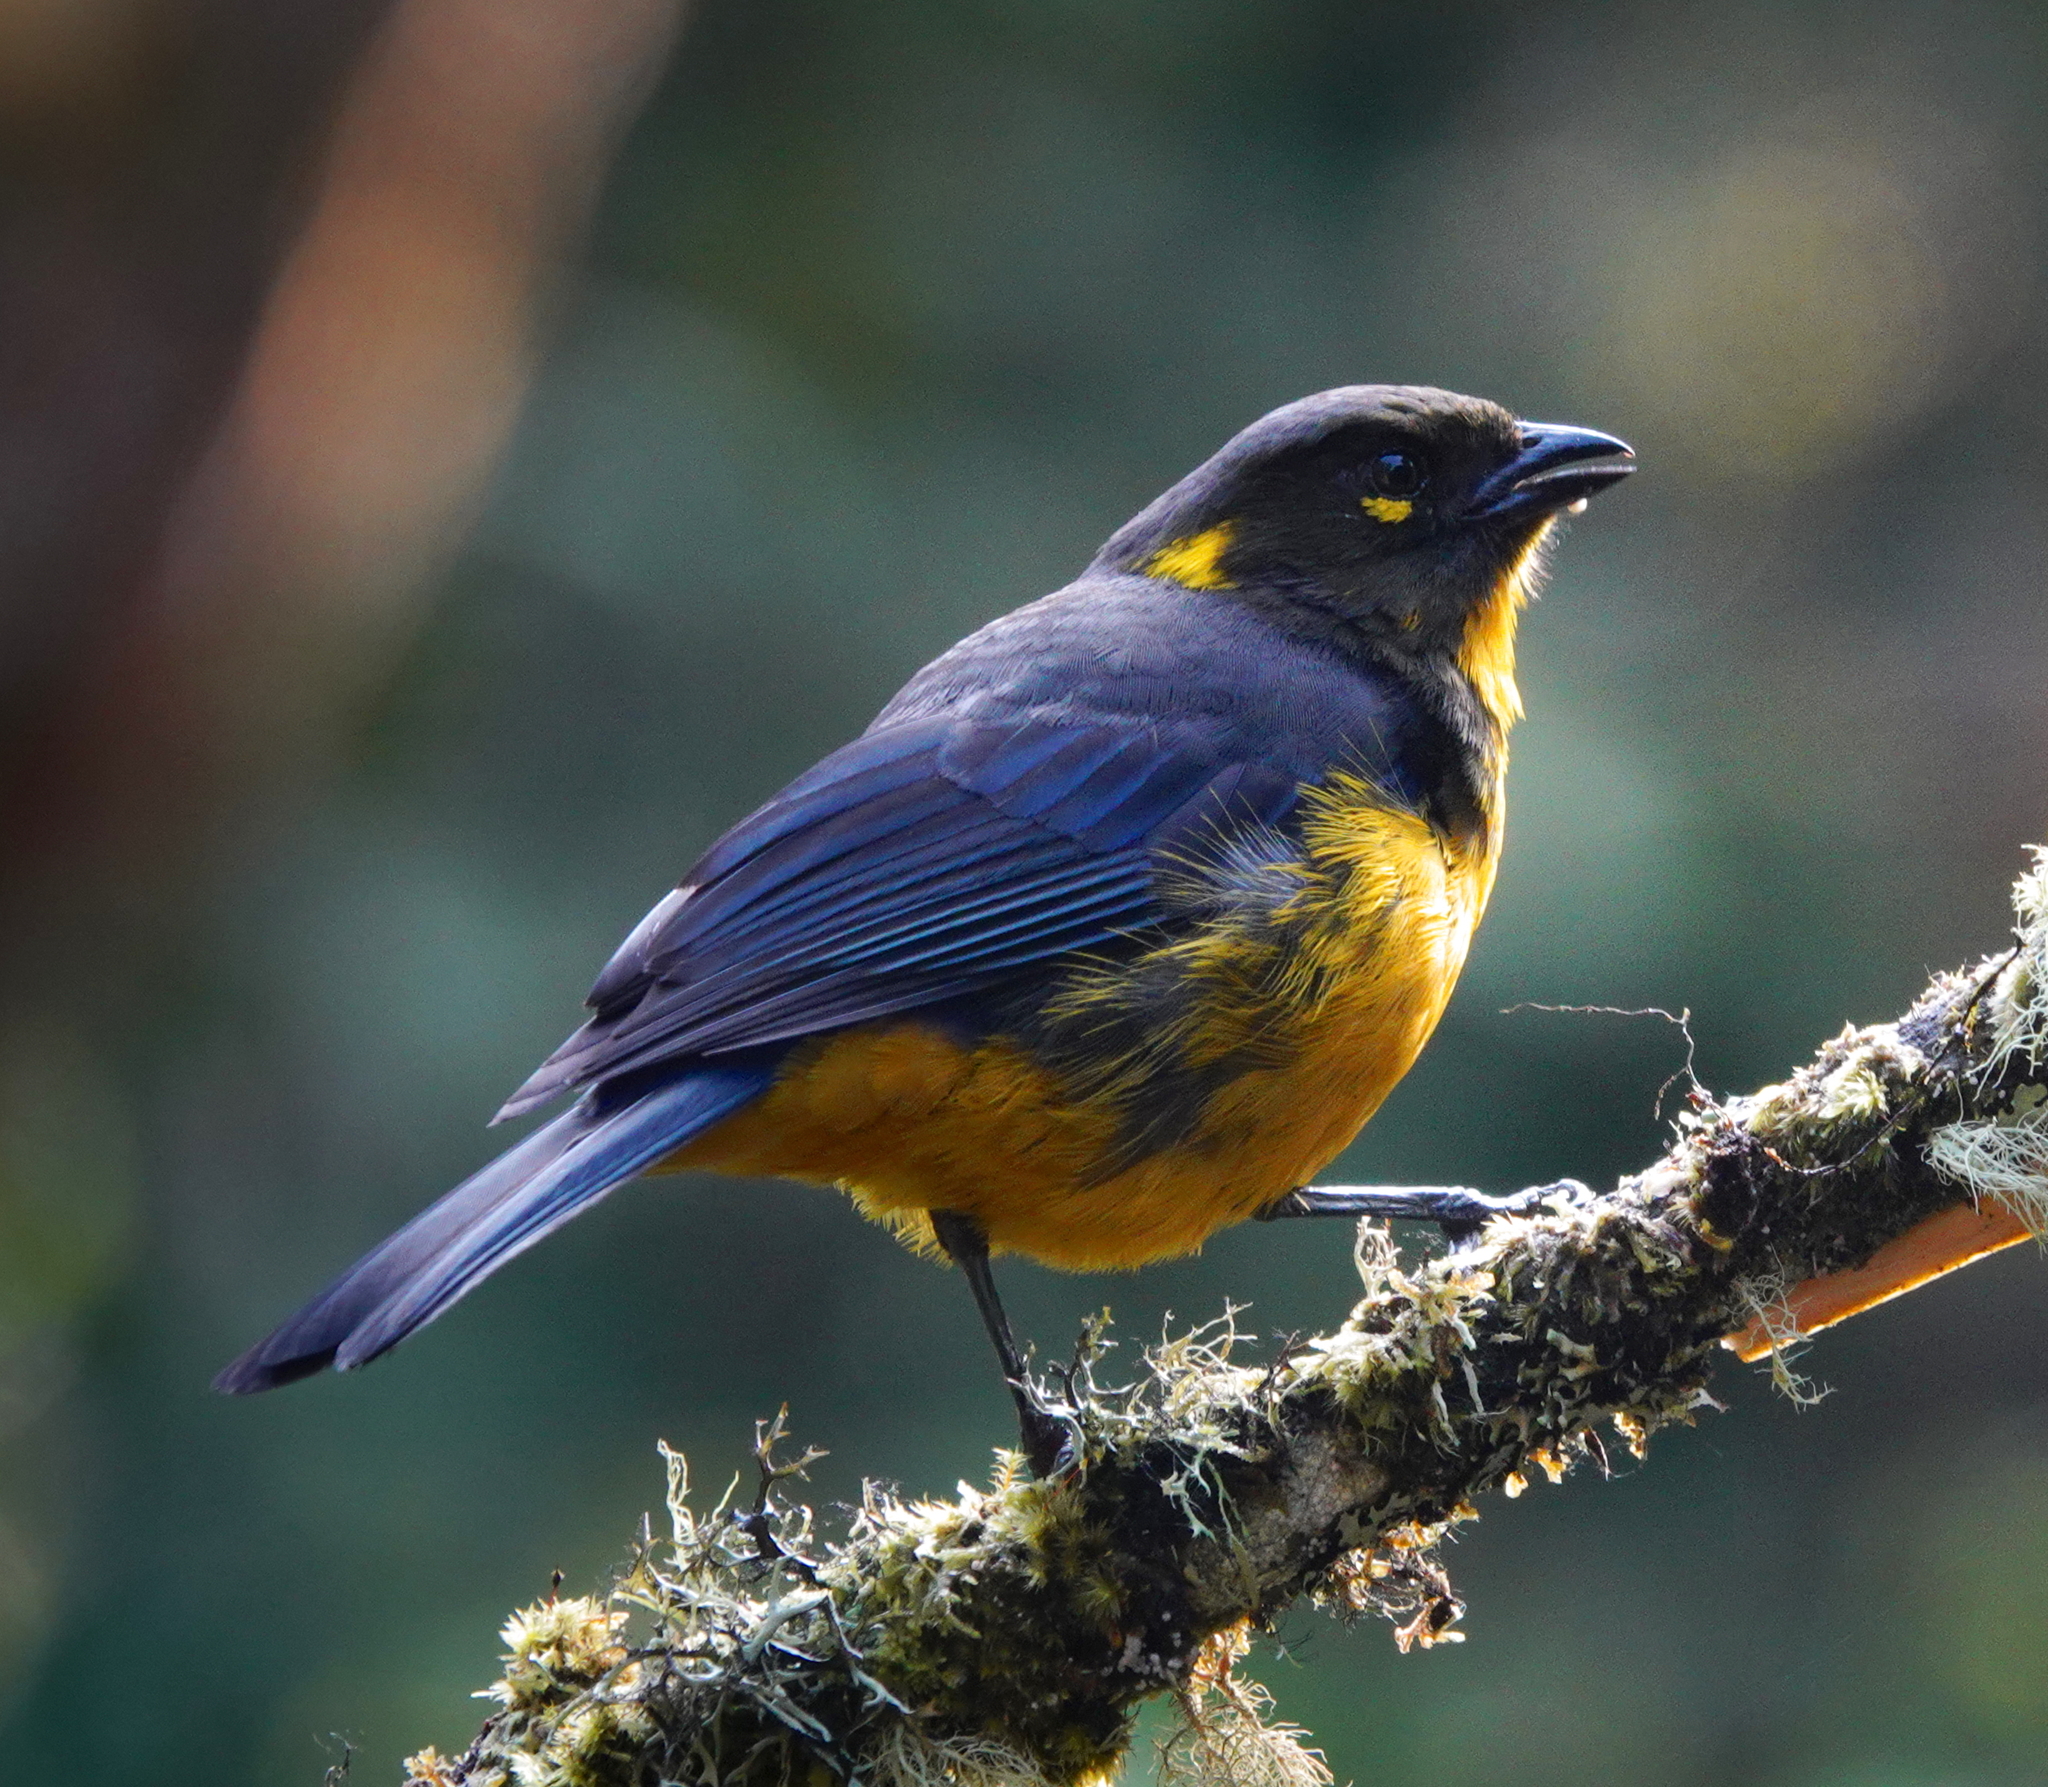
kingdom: Animalia
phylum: Chordata
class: Aves
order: Passeriformes
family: Thraupidae
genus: Anisognathus
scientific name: Anisognathus lacrymosus
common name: Lacrimose mountain-tanager
